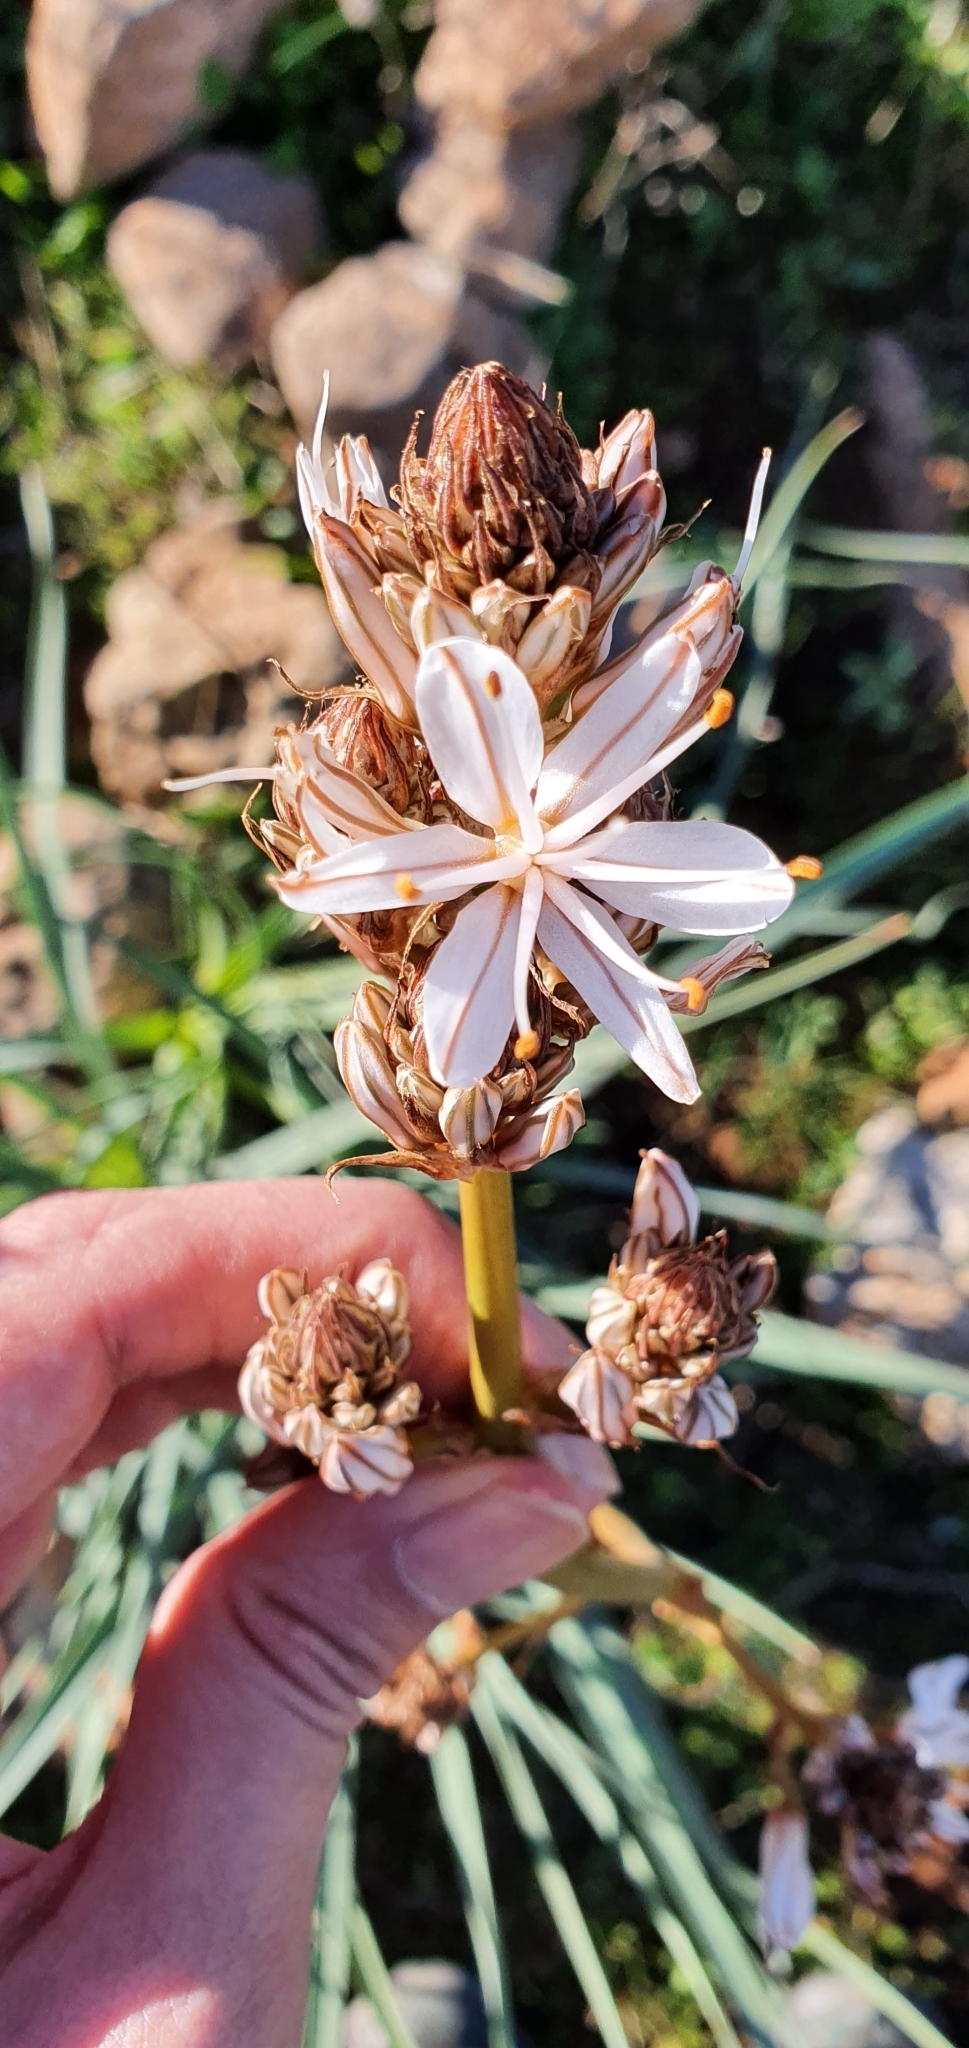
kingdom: Plantae
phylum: Tracheophyta
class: Liliopsida
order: Asparagales
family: Asphodelaceae
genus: Asphodelus
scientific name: Asphodelus ramosus
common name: Silverrod
